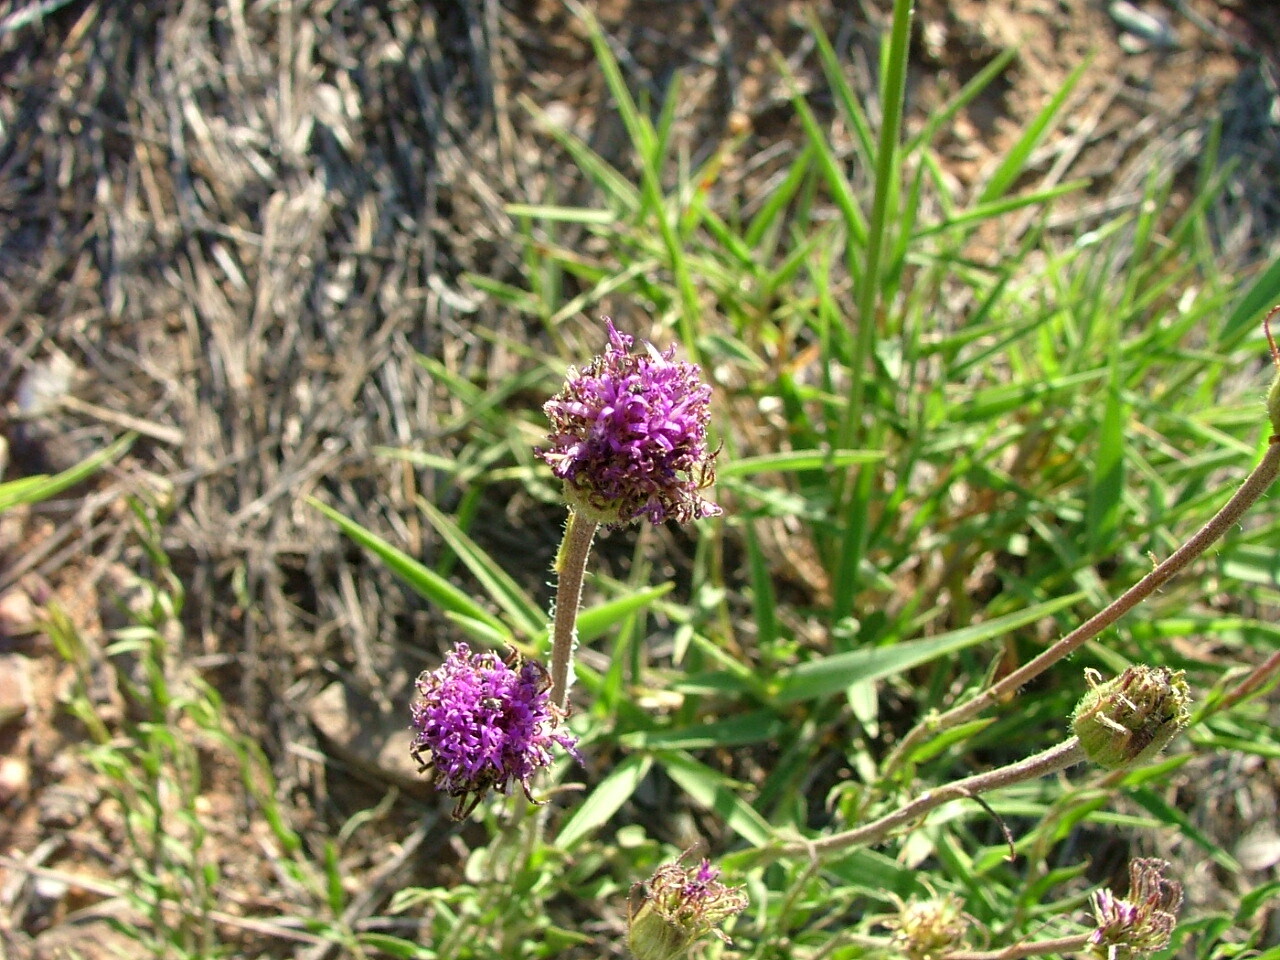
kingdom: Plantae
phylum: Tracheophyta
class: Magnoliopsida
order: Asterales
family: Asteraceae
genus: Pseudopegolettia
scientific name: Pseudopegolettia tenella
